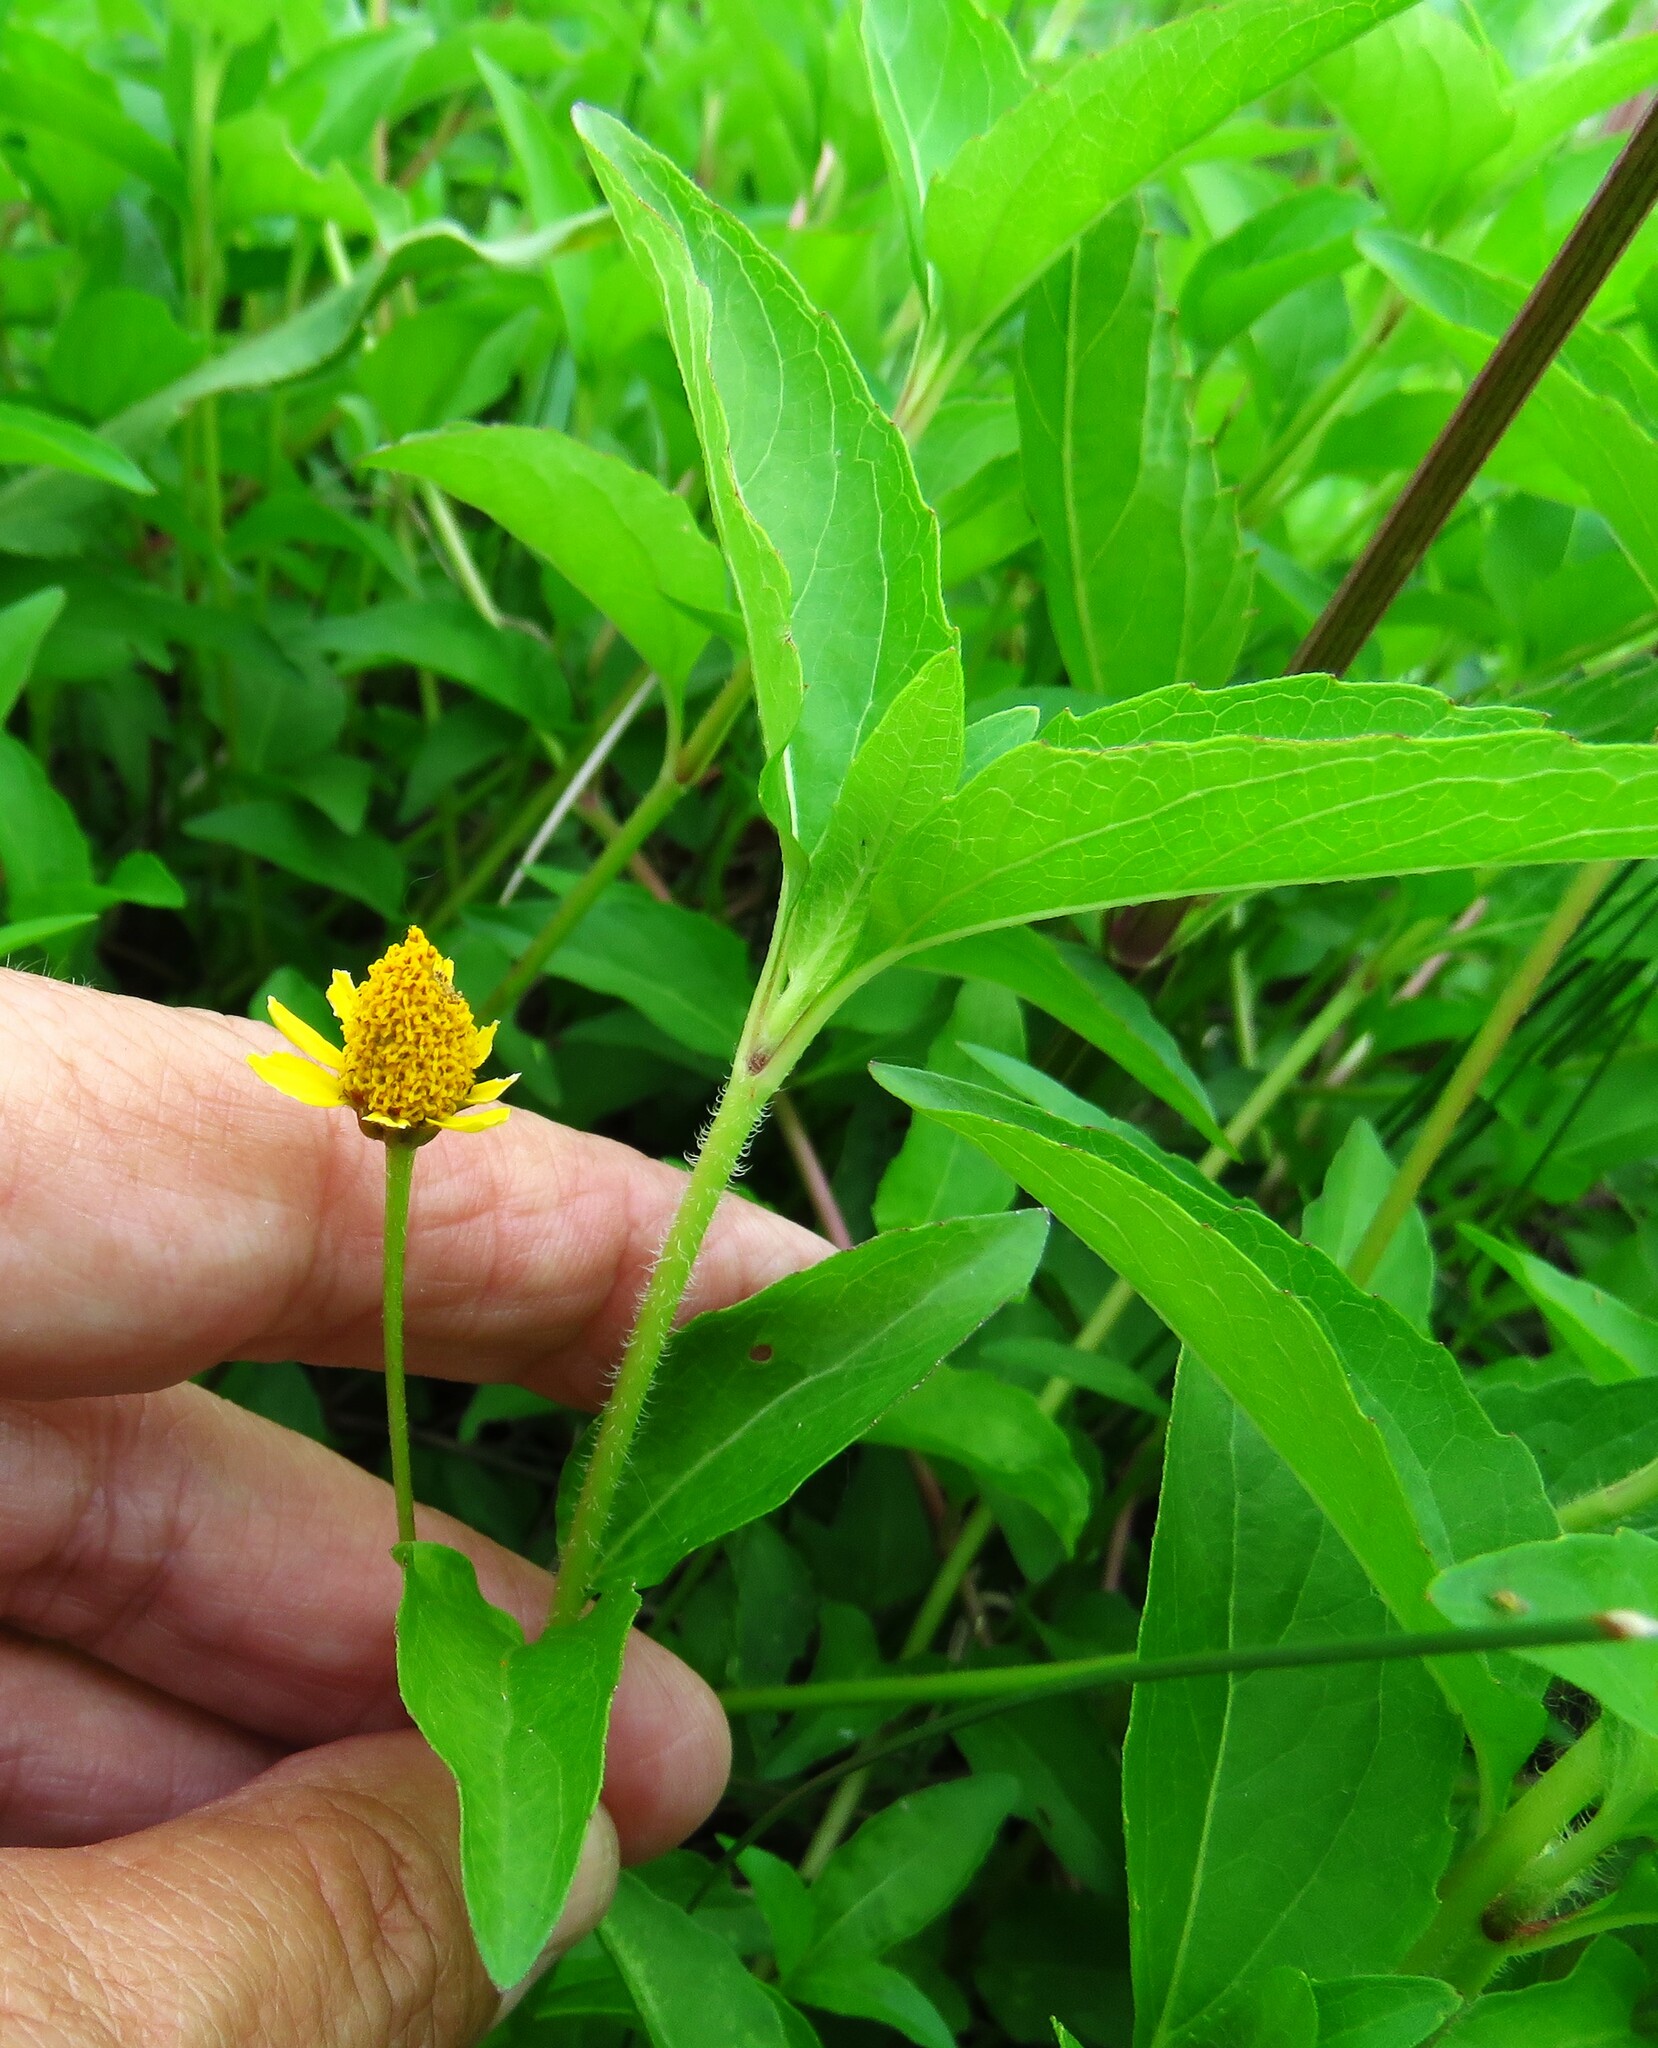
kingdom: Plantae
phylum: Tracheophyta
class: Magnoliopsida
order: Asterales
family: Asteraceae
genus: Acmella
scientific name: Acmella repens
